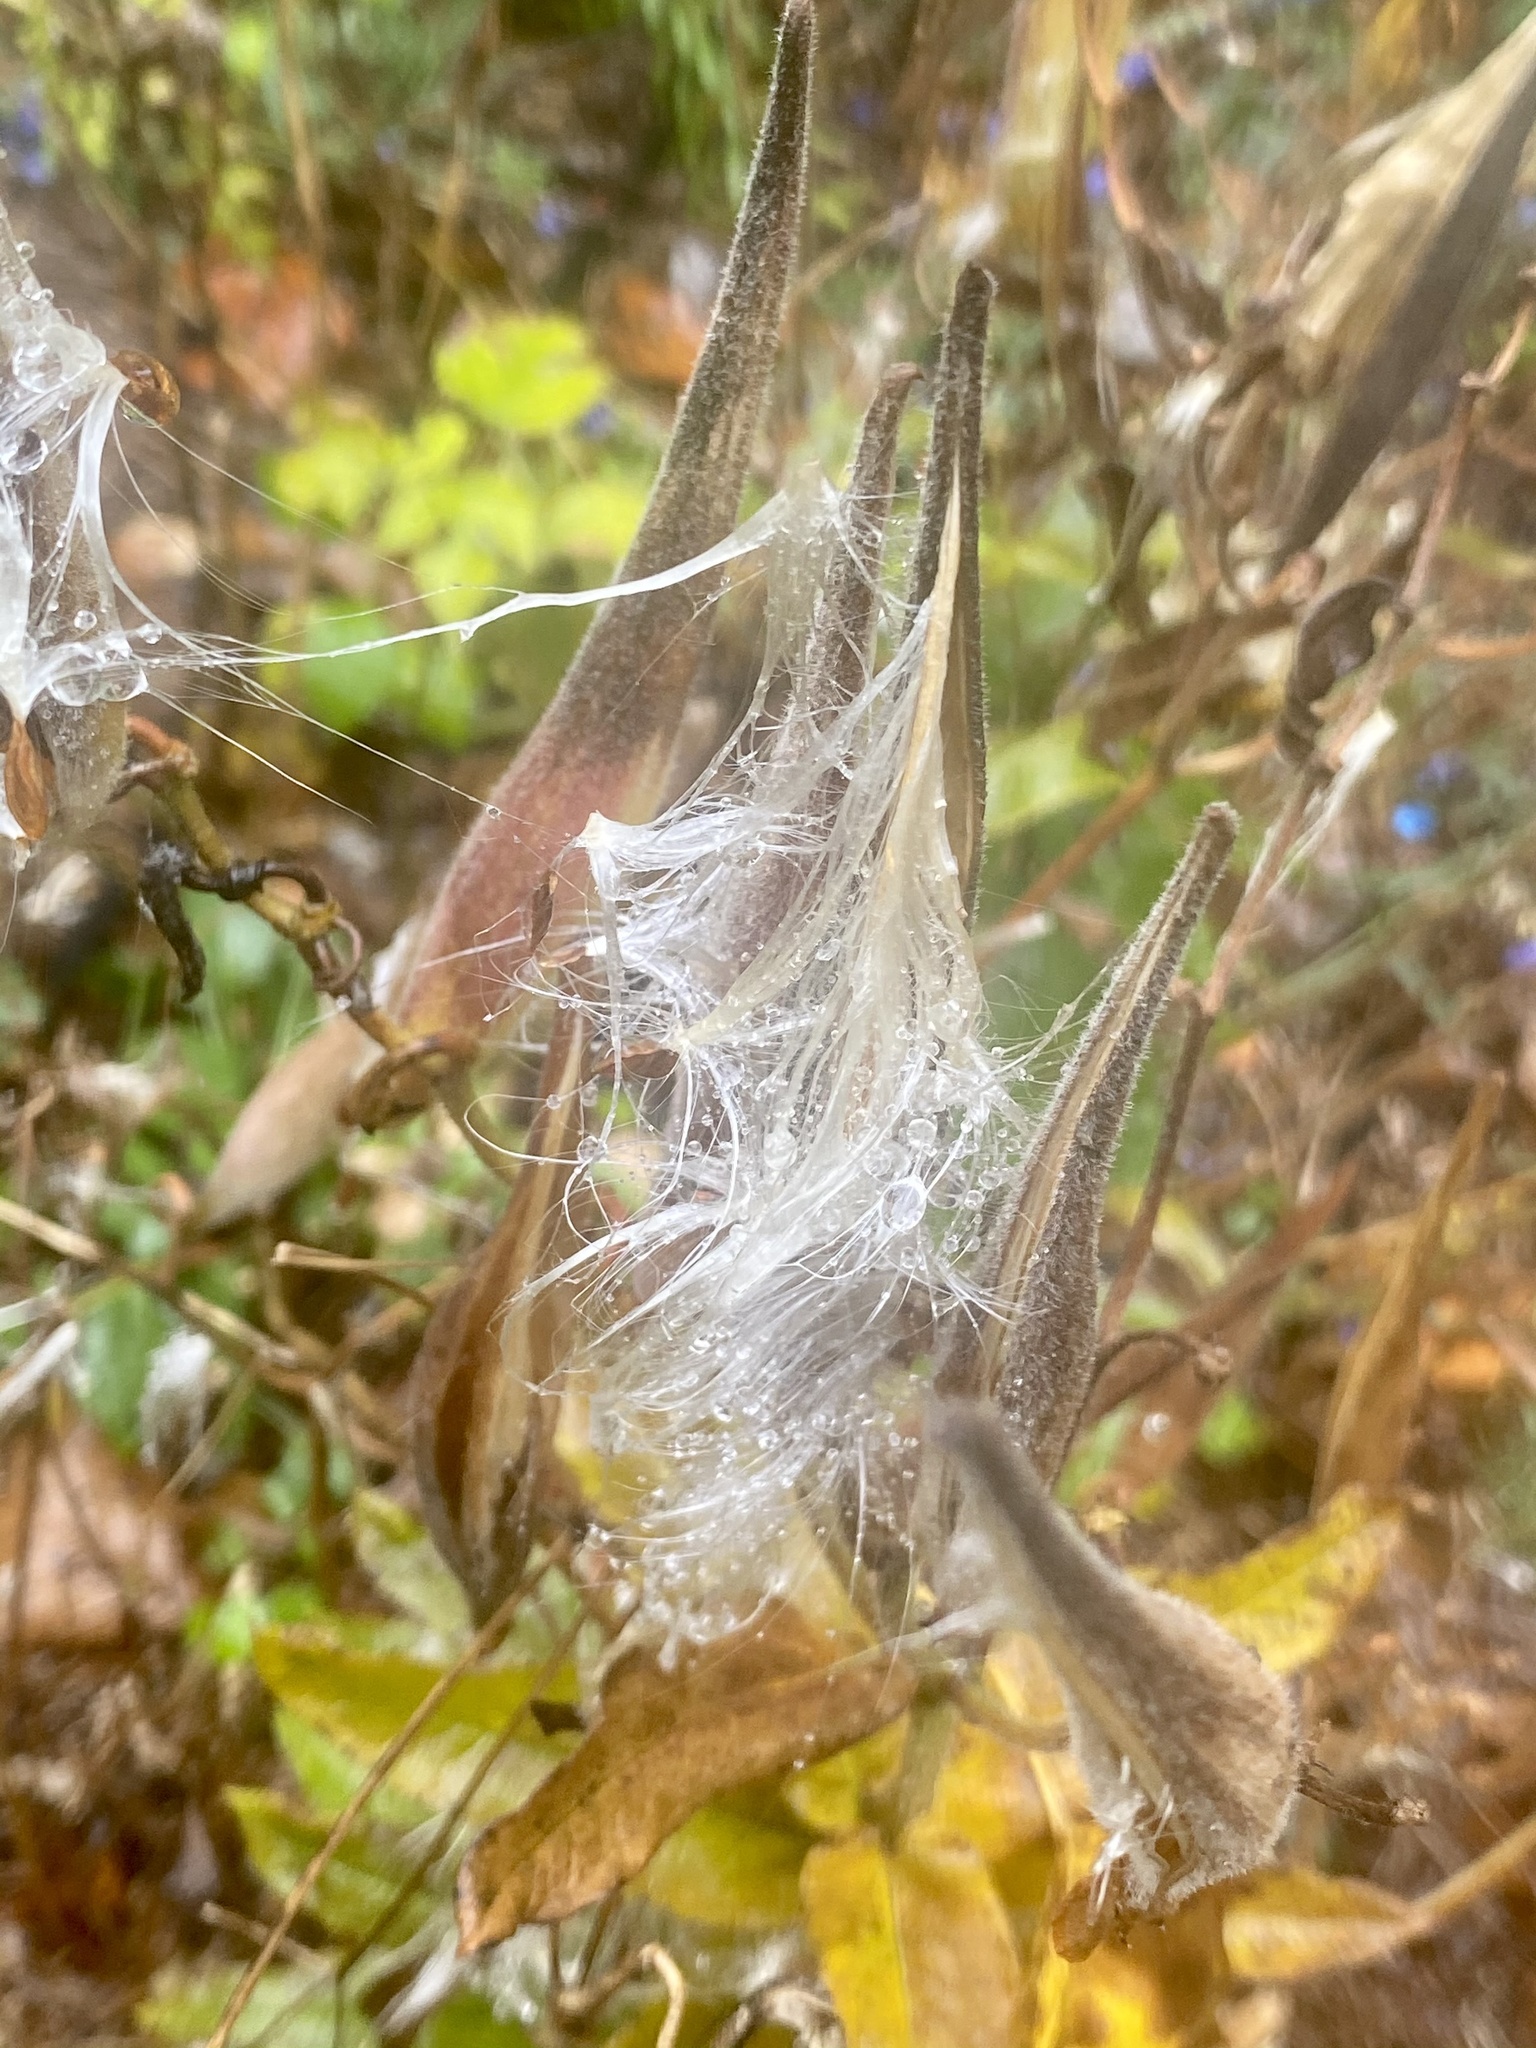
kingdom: Plantae
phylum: Tracheophyta
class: Magnoliopsida
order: Gentianales
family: Apocynaceae
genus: Asclepias
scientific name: Asclepias tuberosa
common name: Butterfly milkweed
